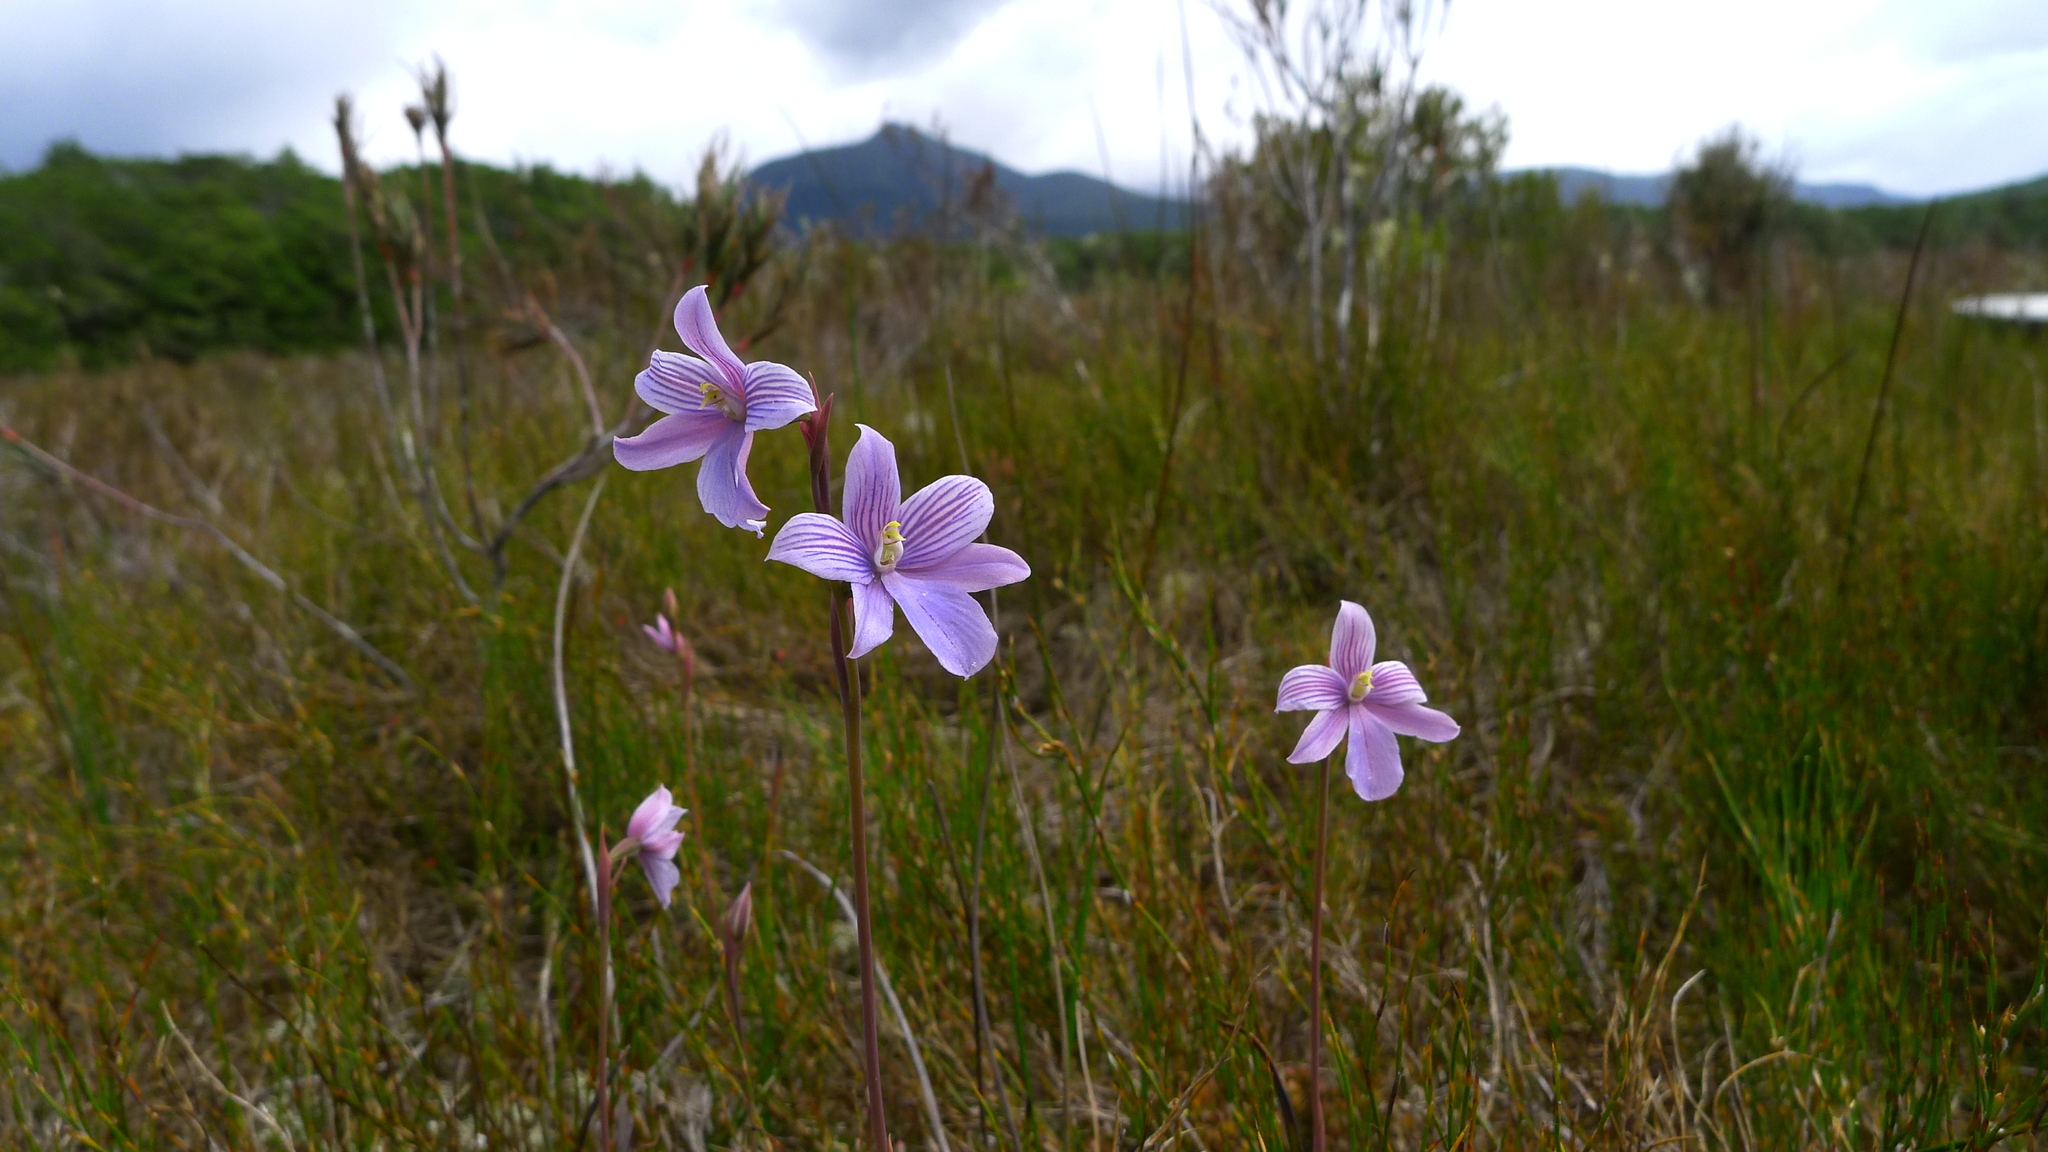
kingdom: Plantae
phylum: Tracheophyta
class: Liliopsida
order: Asparagales
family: Orchidaceae
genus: Thelymitra
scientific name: Thelymitra cyanea
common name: Blue sun-orchid
